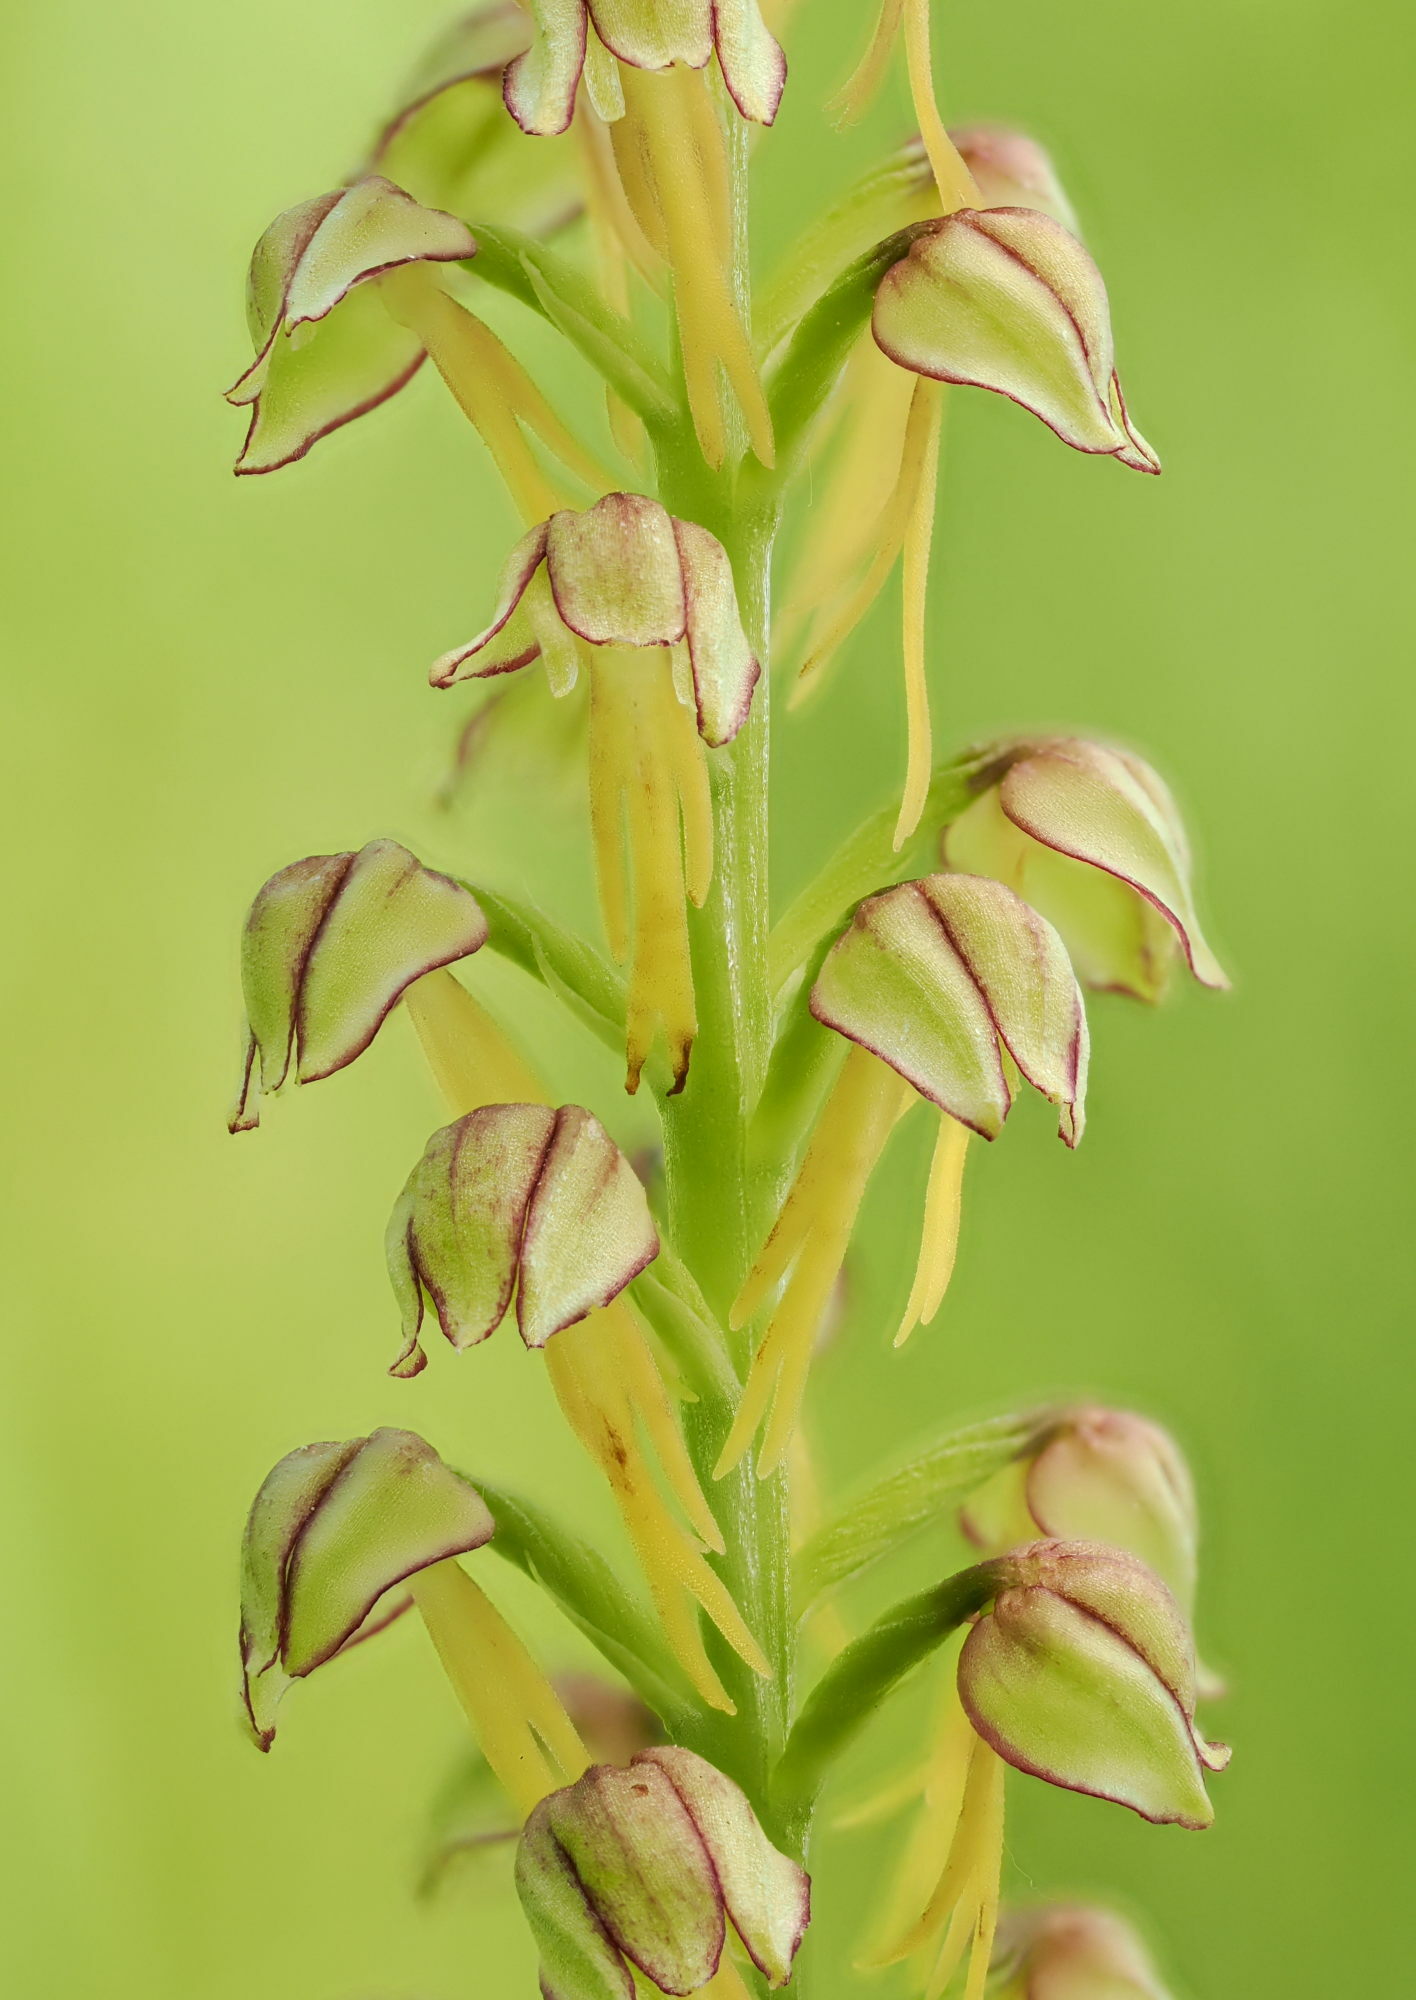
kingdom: Plantae
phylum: Tracheophyta
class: Liliopsida
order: Asparagales
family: Orchidaceae
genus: Orchis
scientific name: Orchis anthropophora
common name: Man orchid
